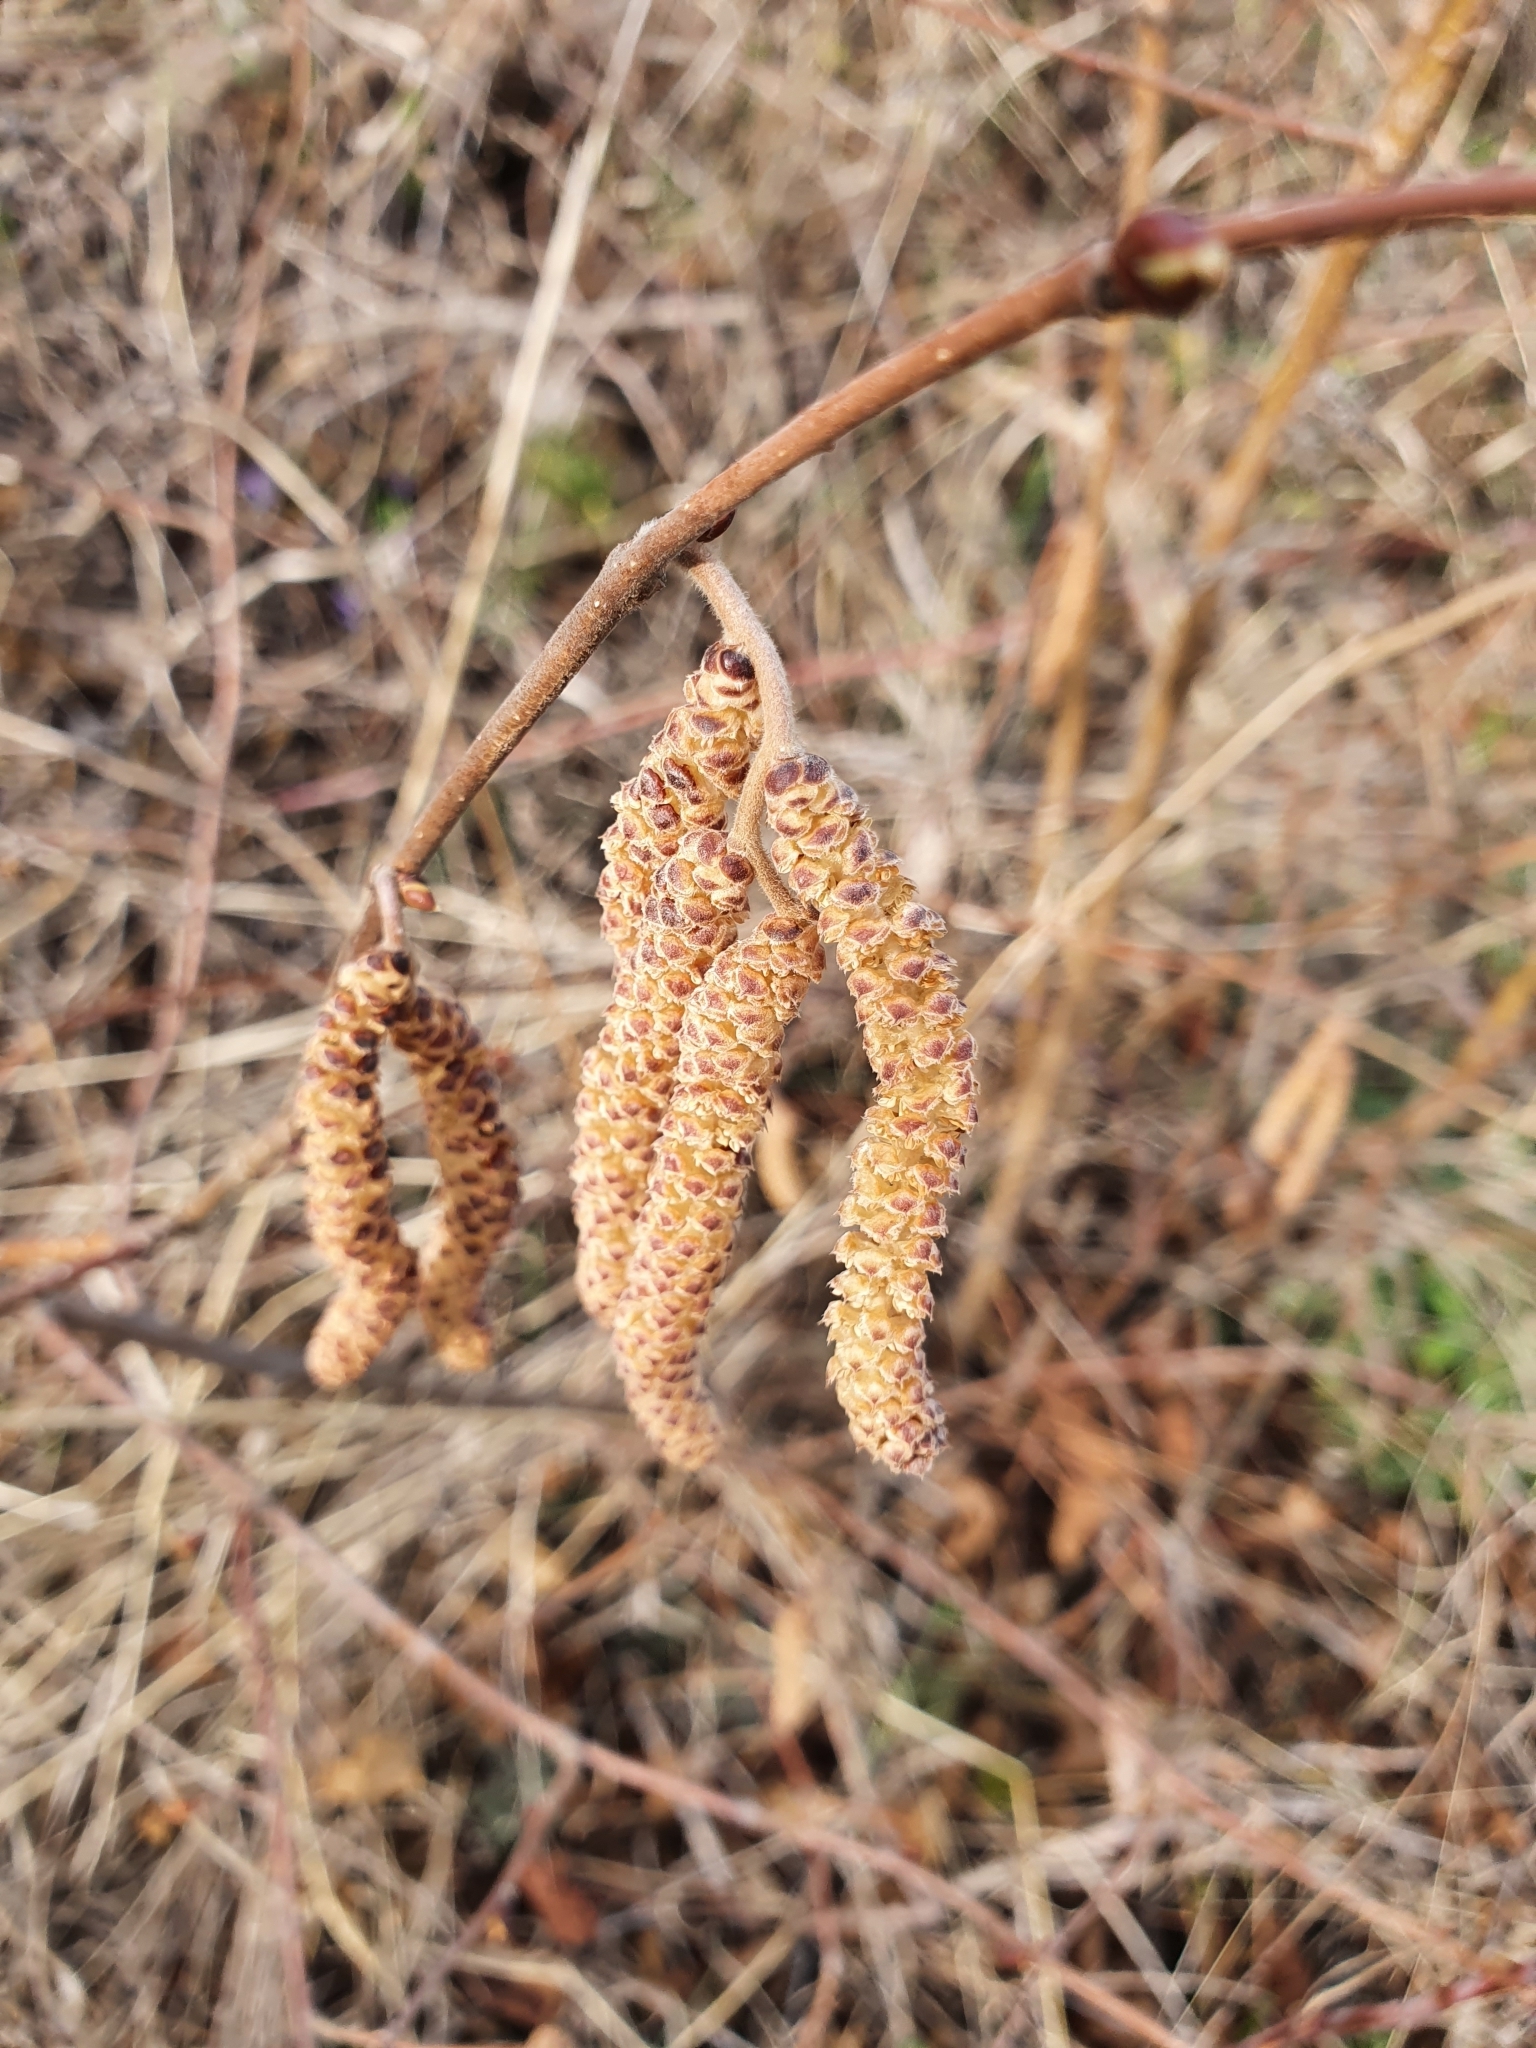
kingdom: Plantae
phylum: Tracheophyta
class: Magnoliopsida
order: Fagales
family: Betulaceae
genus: Corylus
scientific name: Corylus avellana
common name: European hazel
